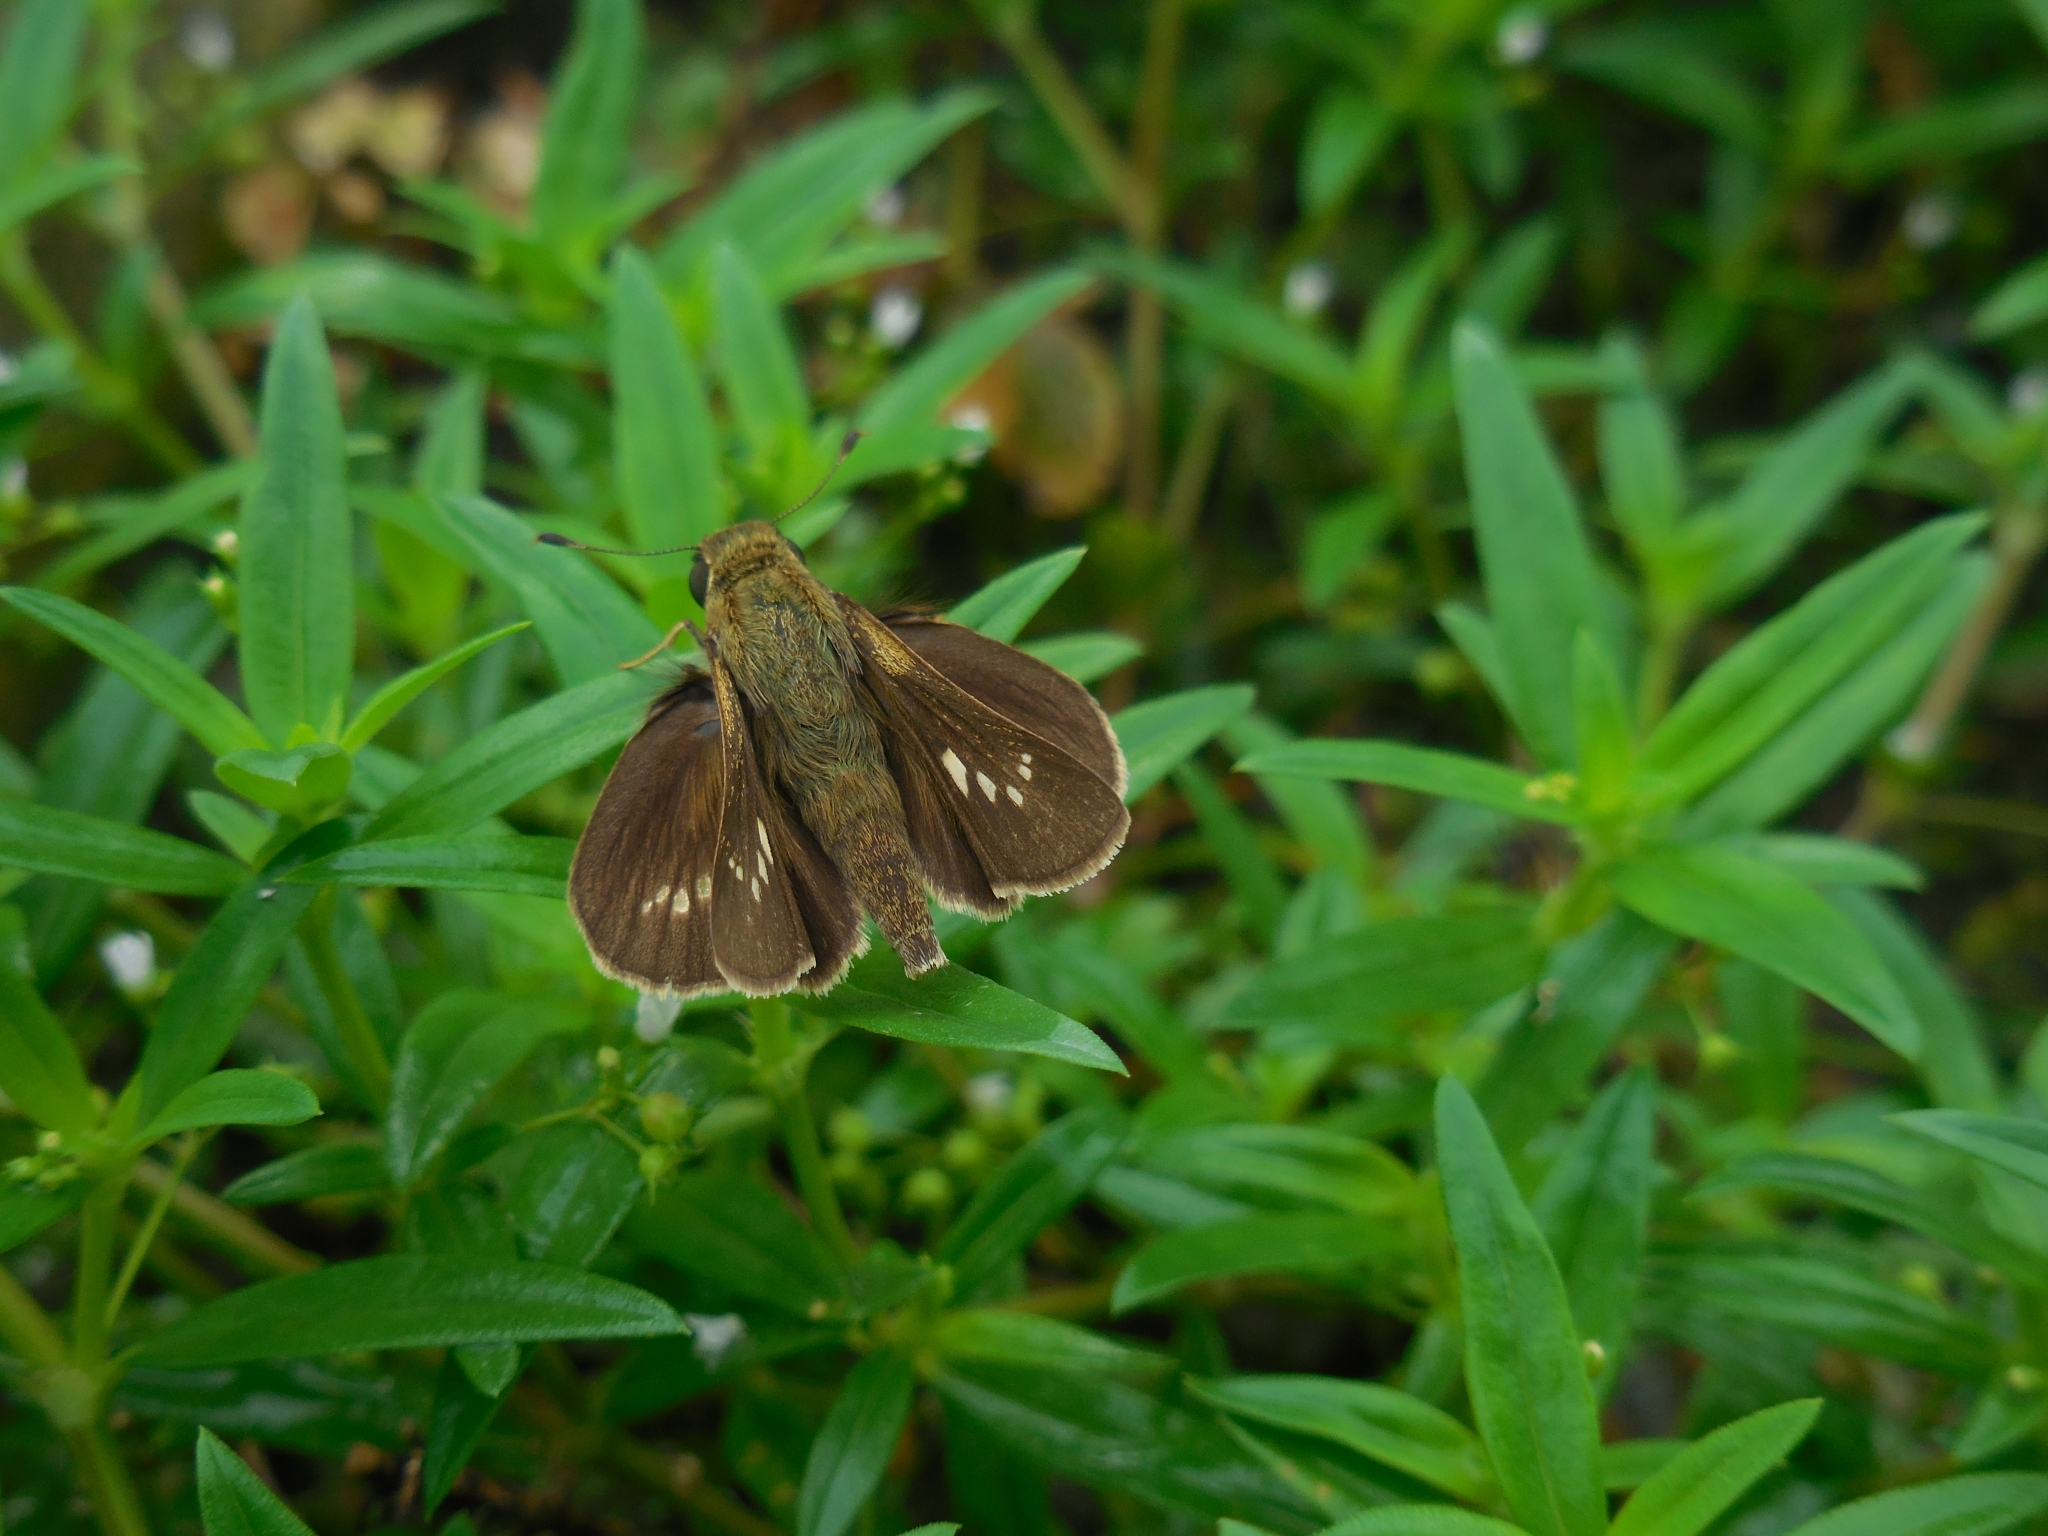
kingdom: Animalia
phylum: Arthropoda
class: Insecta
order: Lepidoptera
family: Hesperiidae
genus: Parnara
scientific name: Parnara ganga
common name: Continental swift
